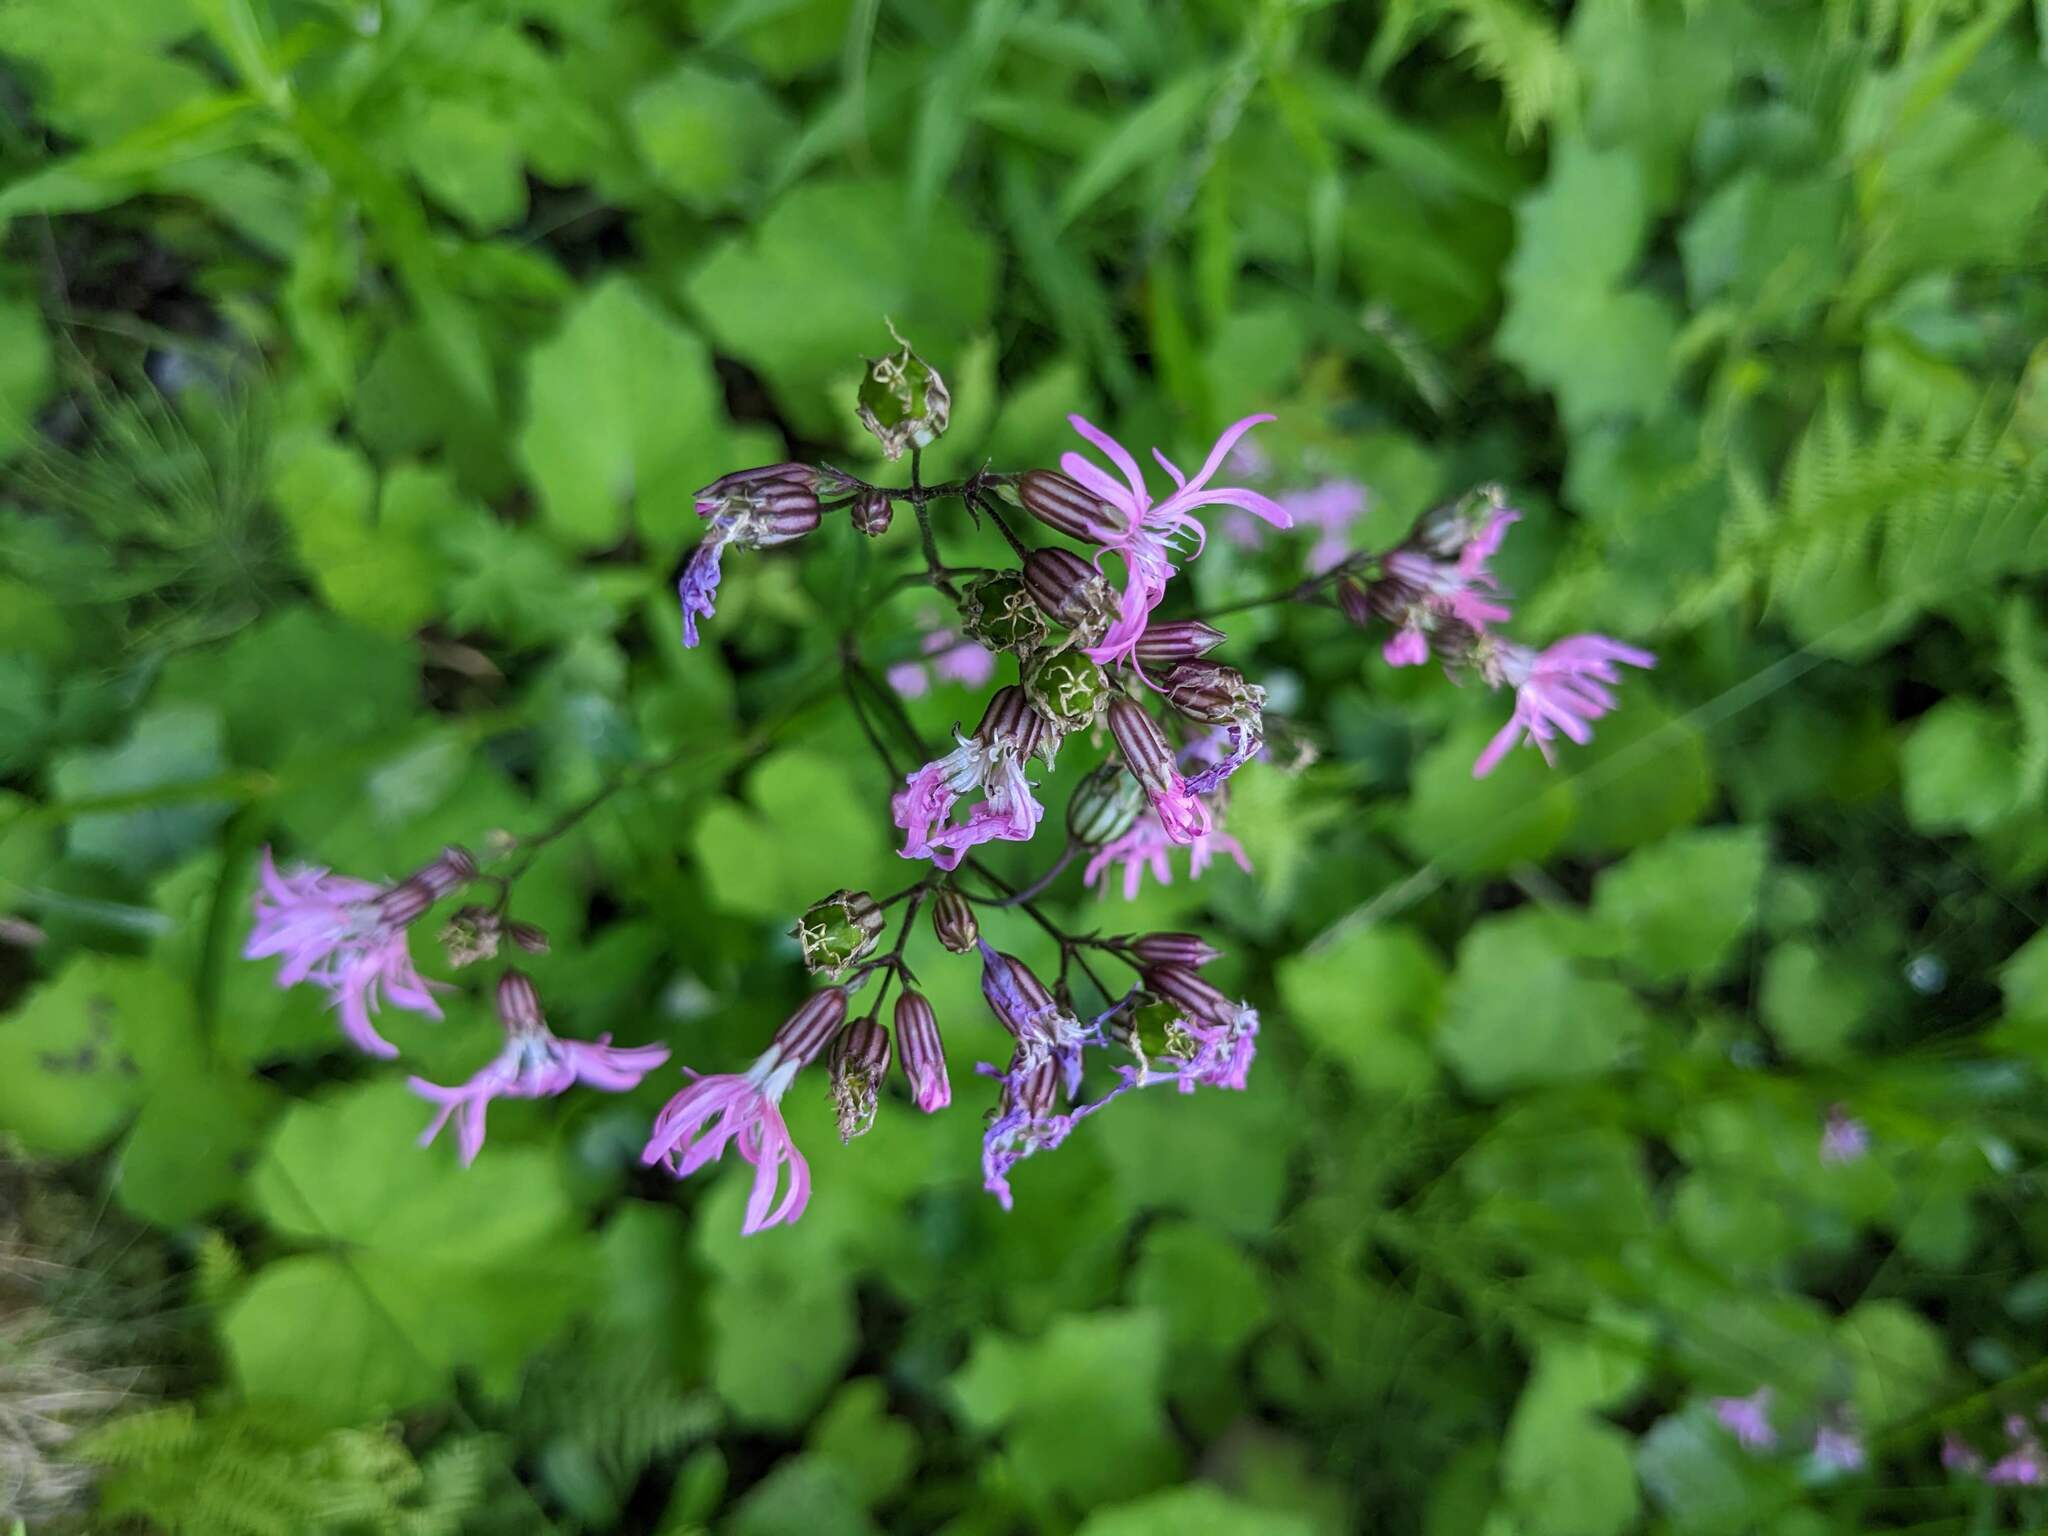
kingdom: Plantae
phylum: Tracheophyta
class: Magnoliopsida
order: Caryophyllales
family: Caryophyllaceae
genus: Silene
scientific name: Silene flos-cuculi
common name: Ragged-robin
